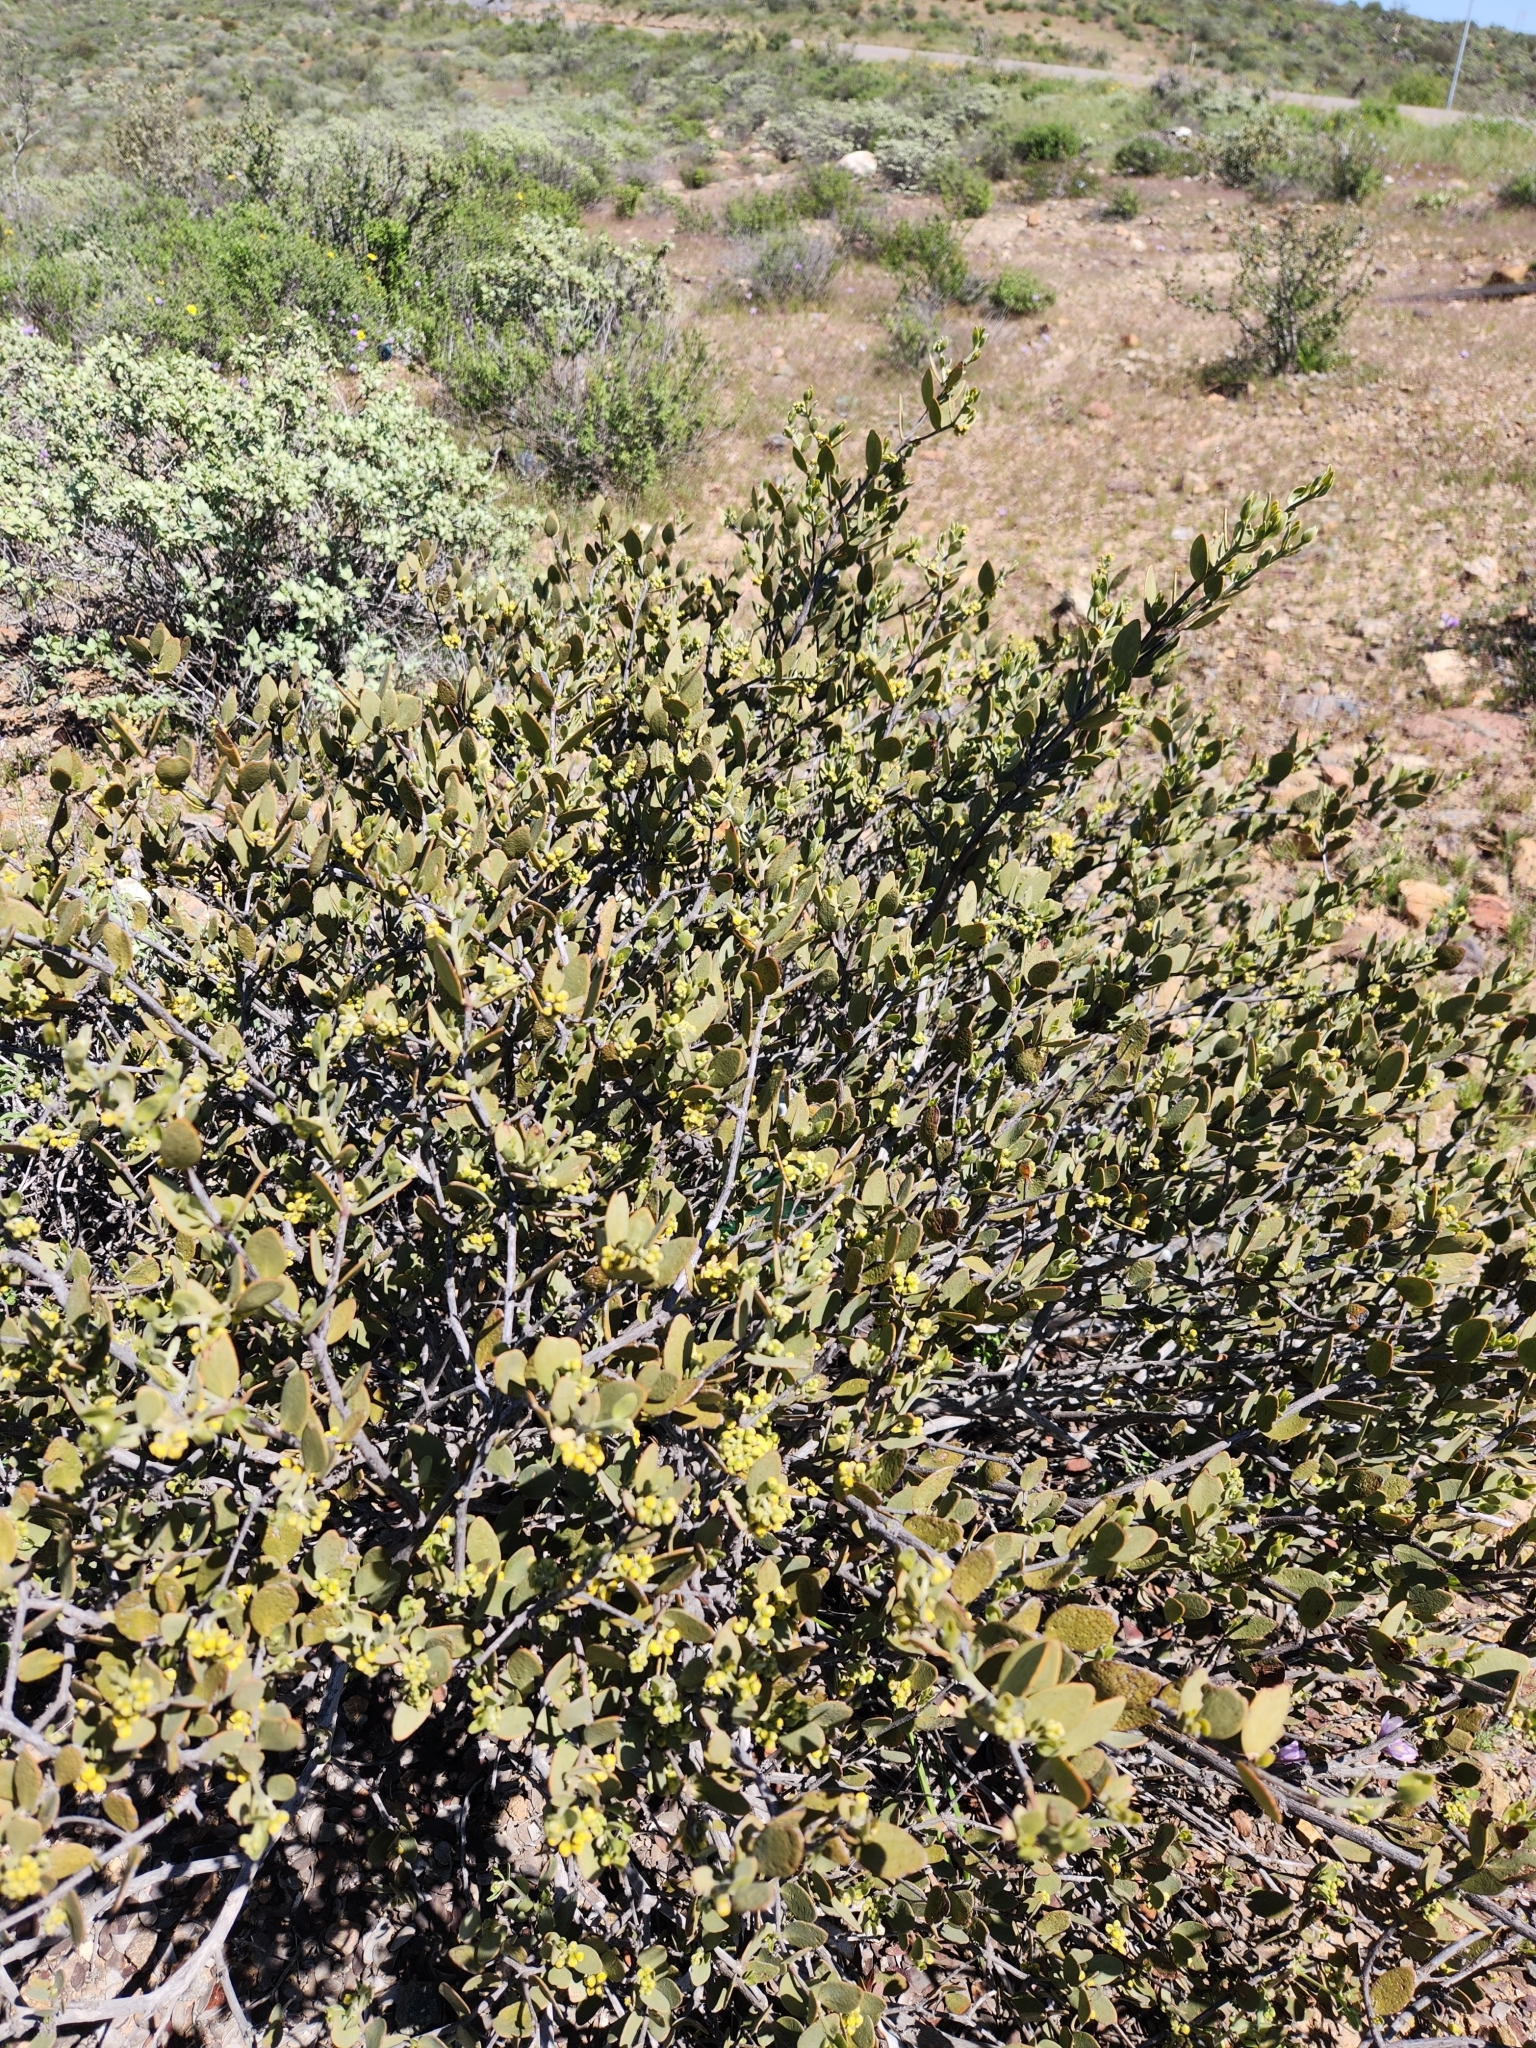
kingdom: Plantae
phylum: Tracheophyta
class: Magnoliopsida
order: Caryophyllales
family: Simmondsiaceae
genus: Simmondsia
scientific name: Simmondsia chinensis
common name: Jojoba
